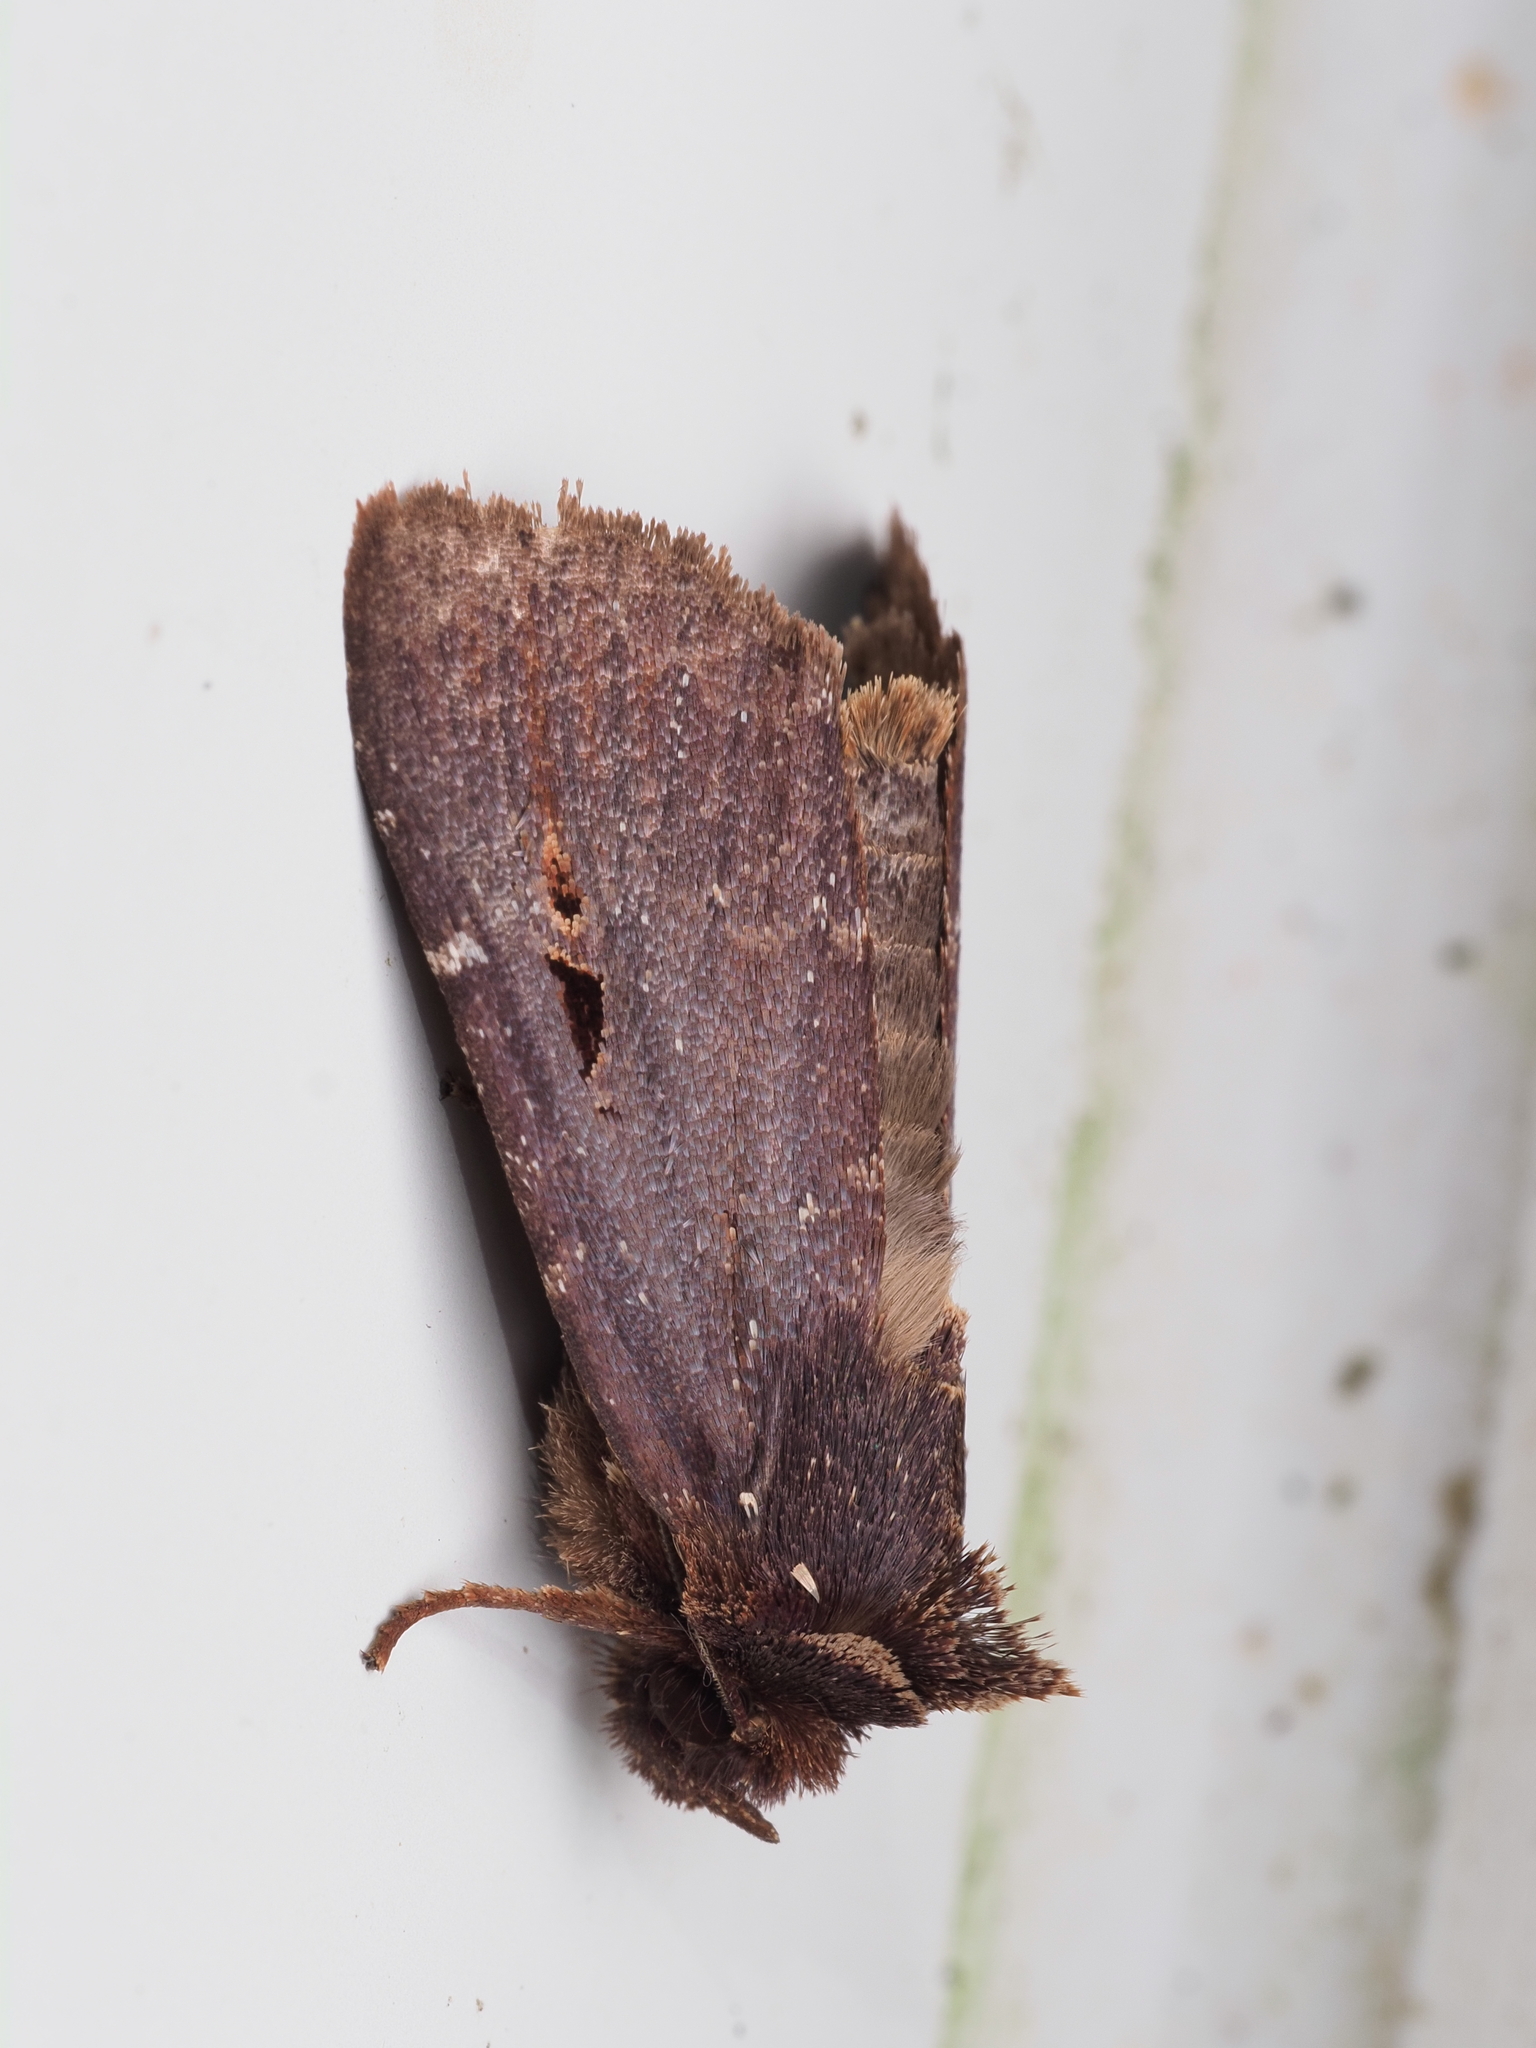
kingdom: Animalia
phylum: Arthropoda
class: Insecta
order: Lepidoptera
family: Noctuidae
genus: Austramathes
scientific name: Austramathes purpurea
